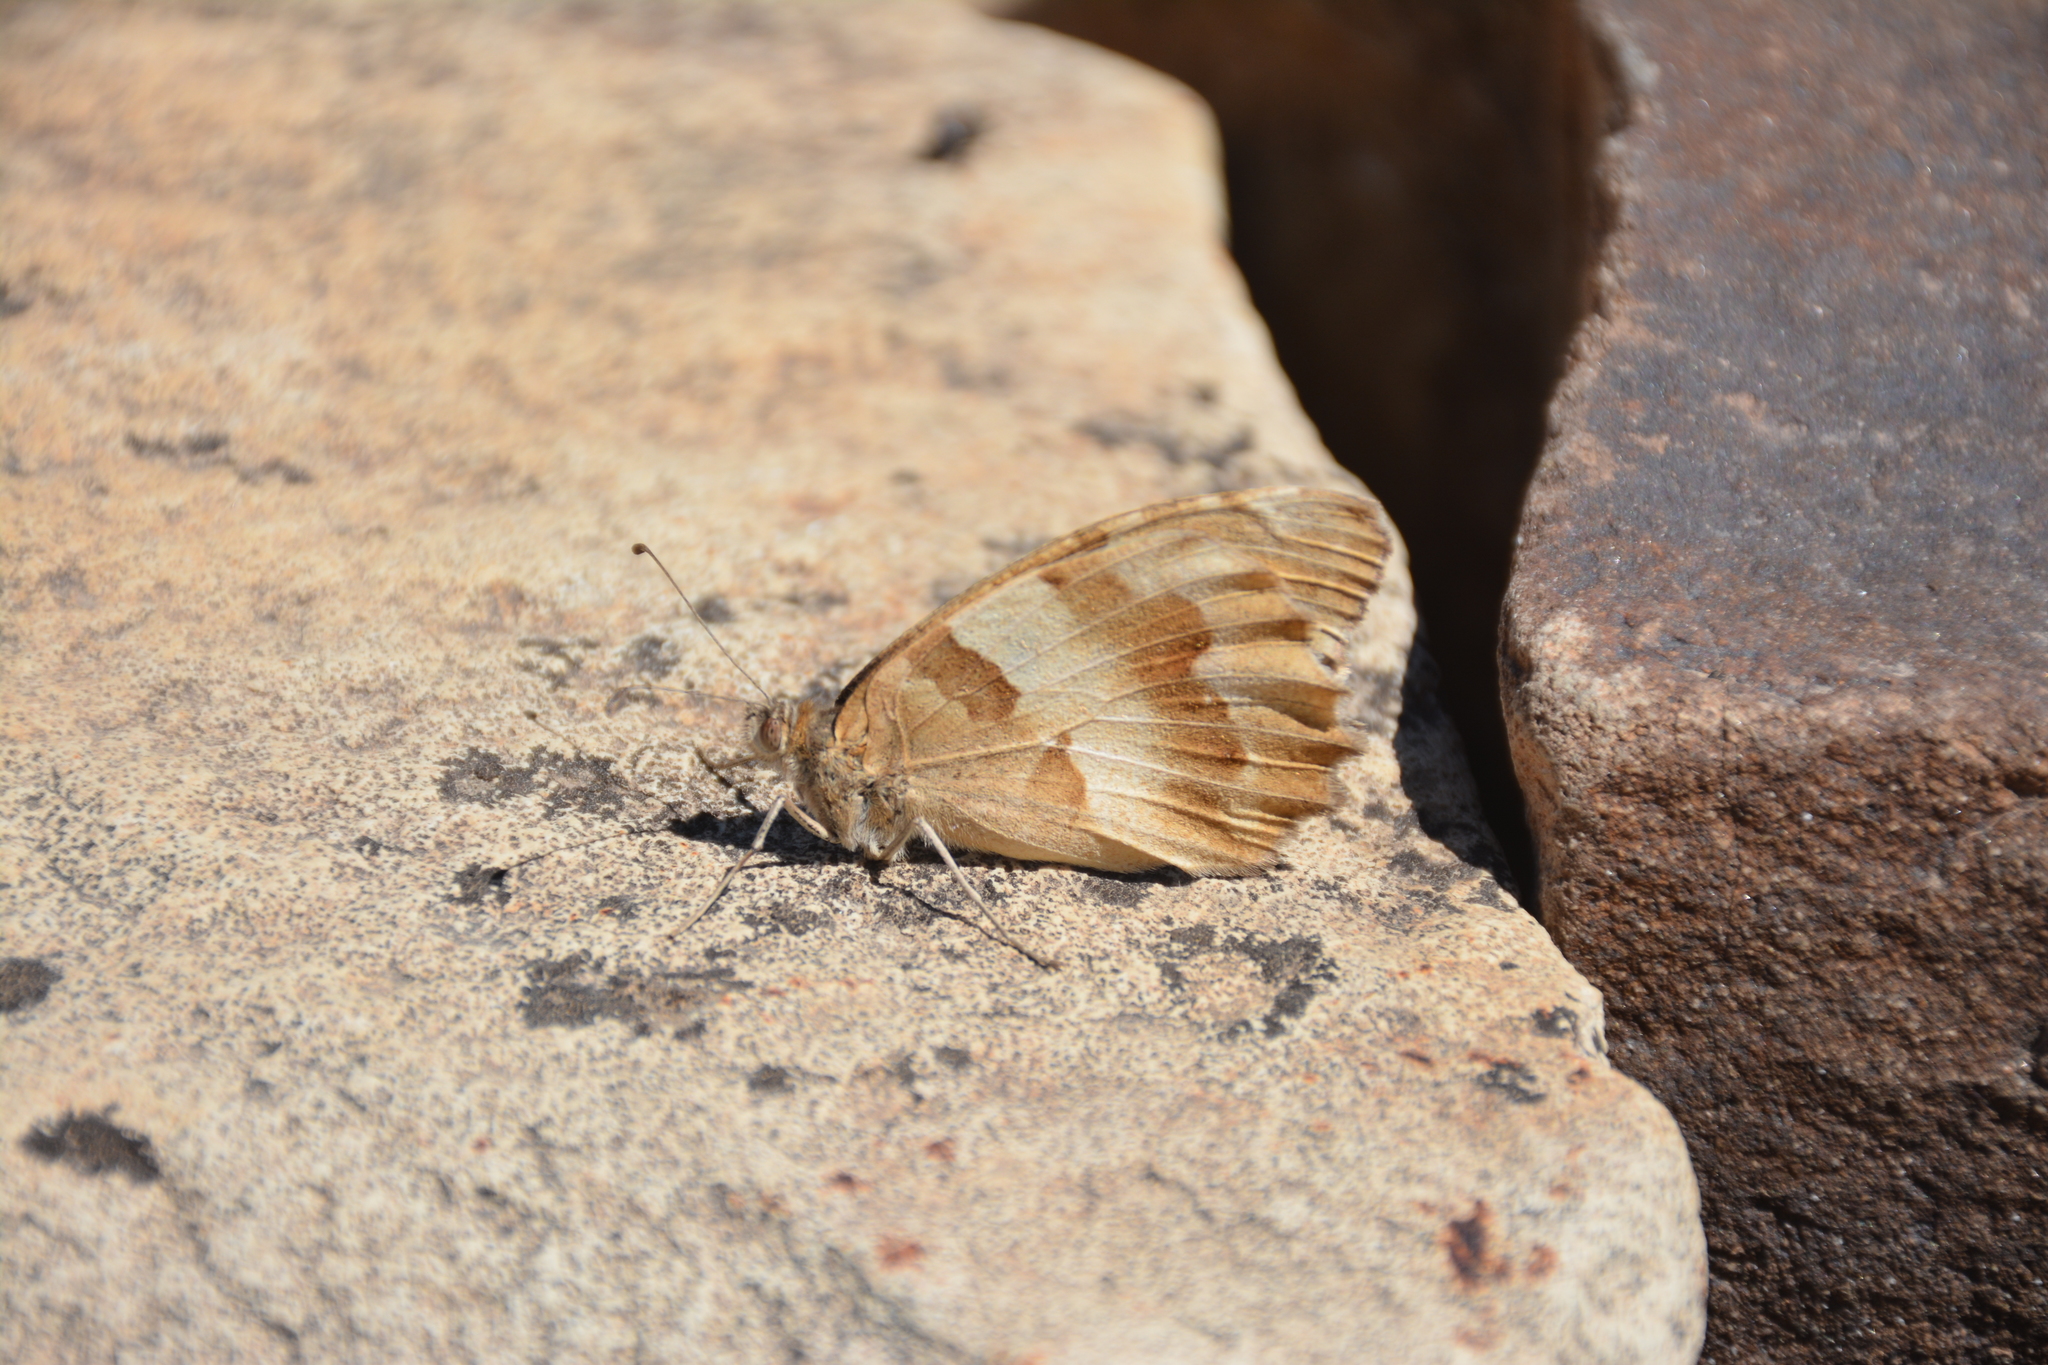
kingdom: Animalia
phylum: Arthropoda
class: Insecta
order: Lepidoptera
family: Nymphalidae
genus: Satyrus
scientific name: Satyrus briseis
